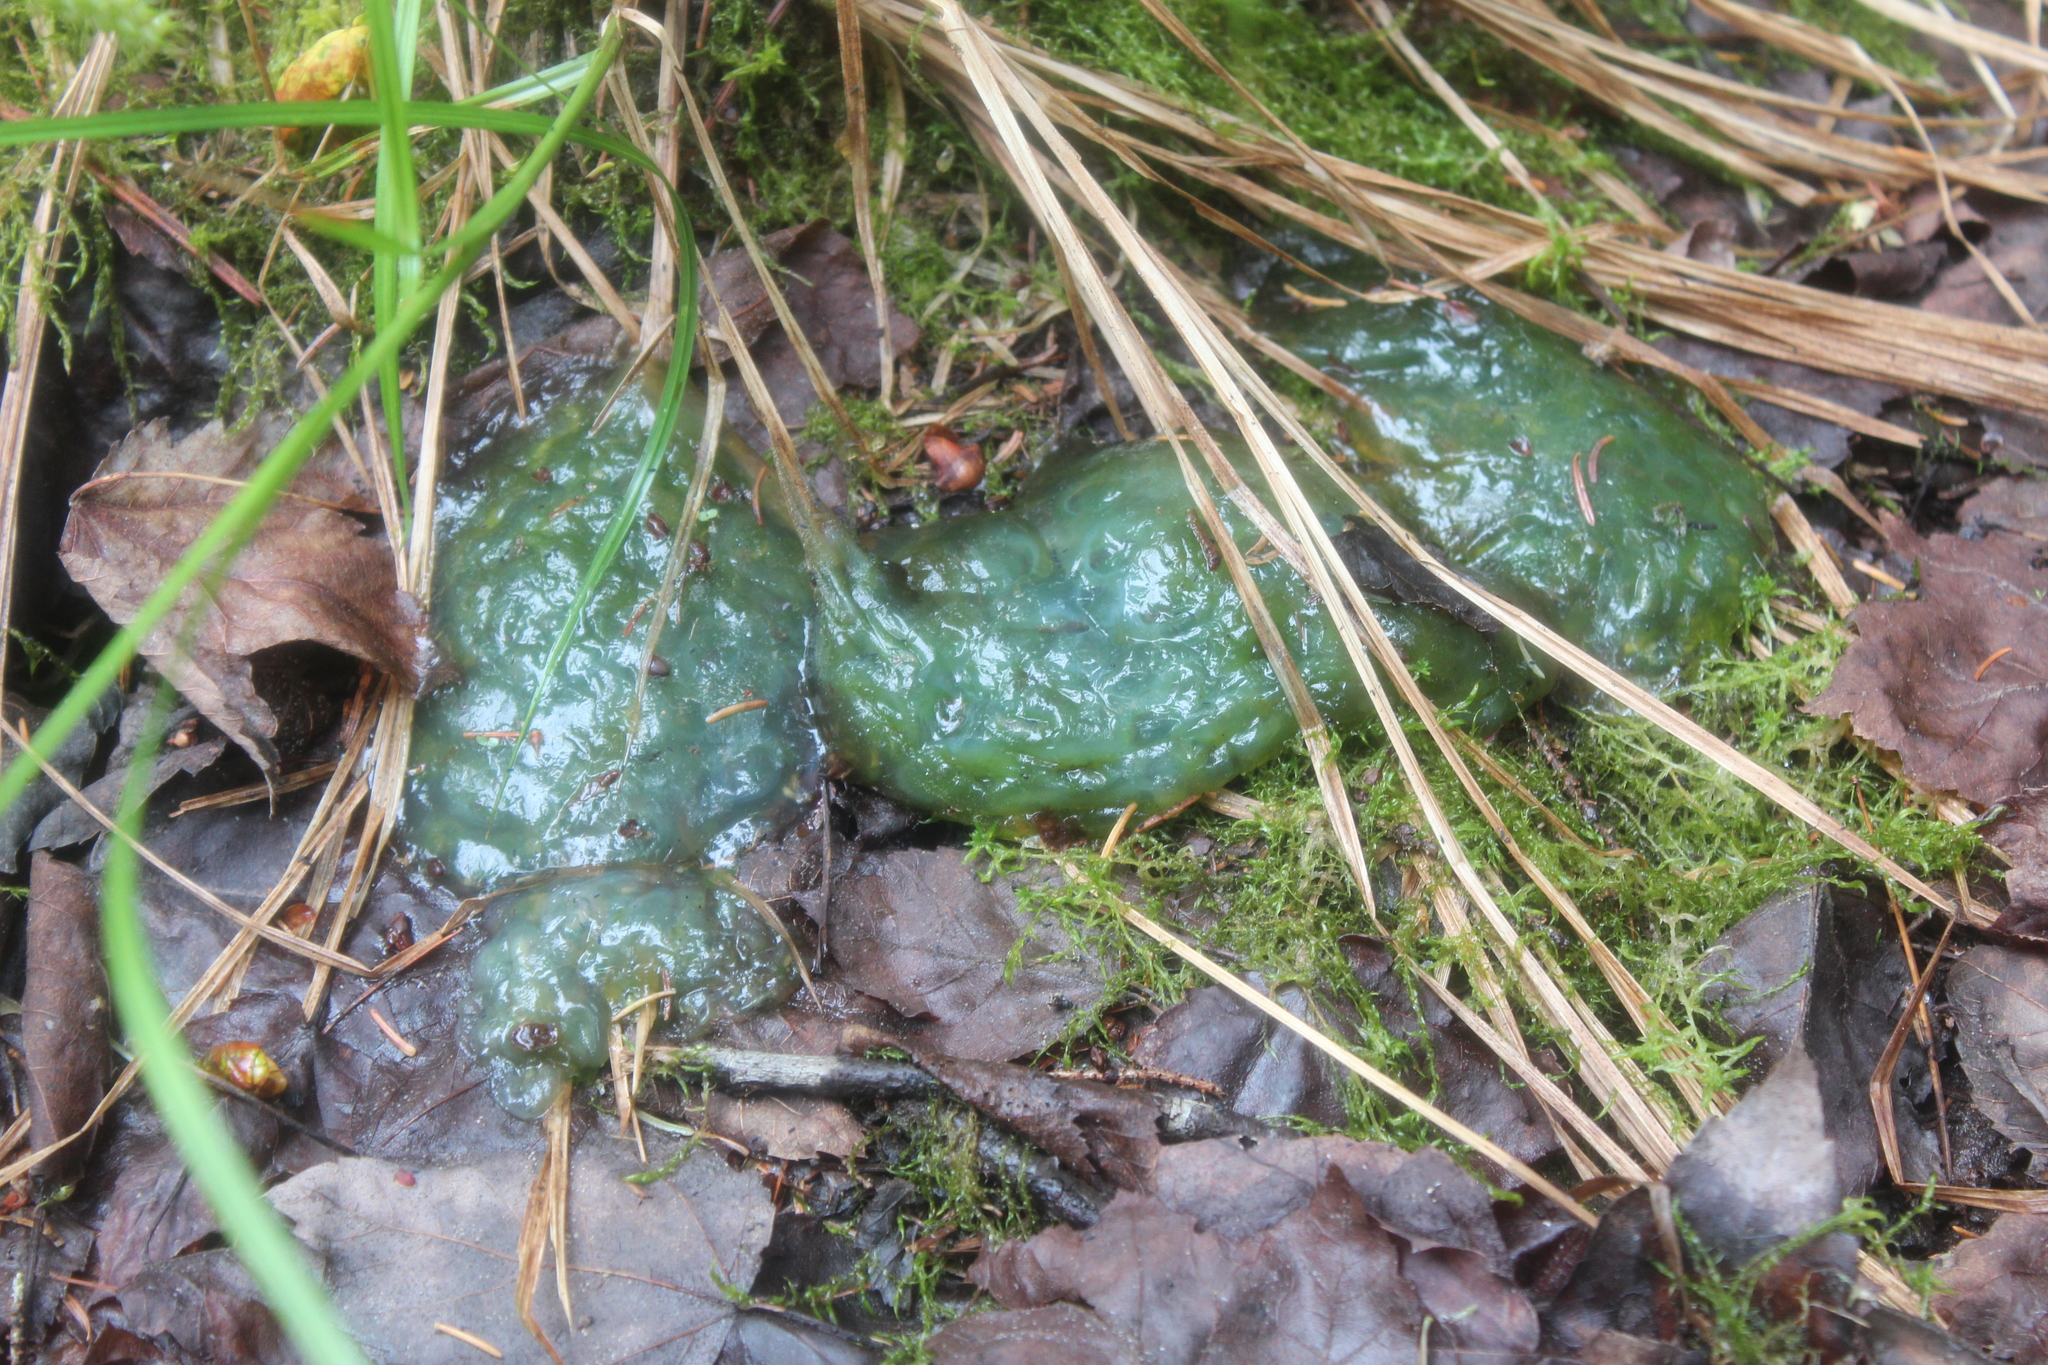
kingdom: Animalia
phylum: Chordata
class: Amphibia
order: Caudata
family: Ambystomatidae
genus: Ambystoma
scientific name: Ambystoma maculatum
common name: Spotted salamander
